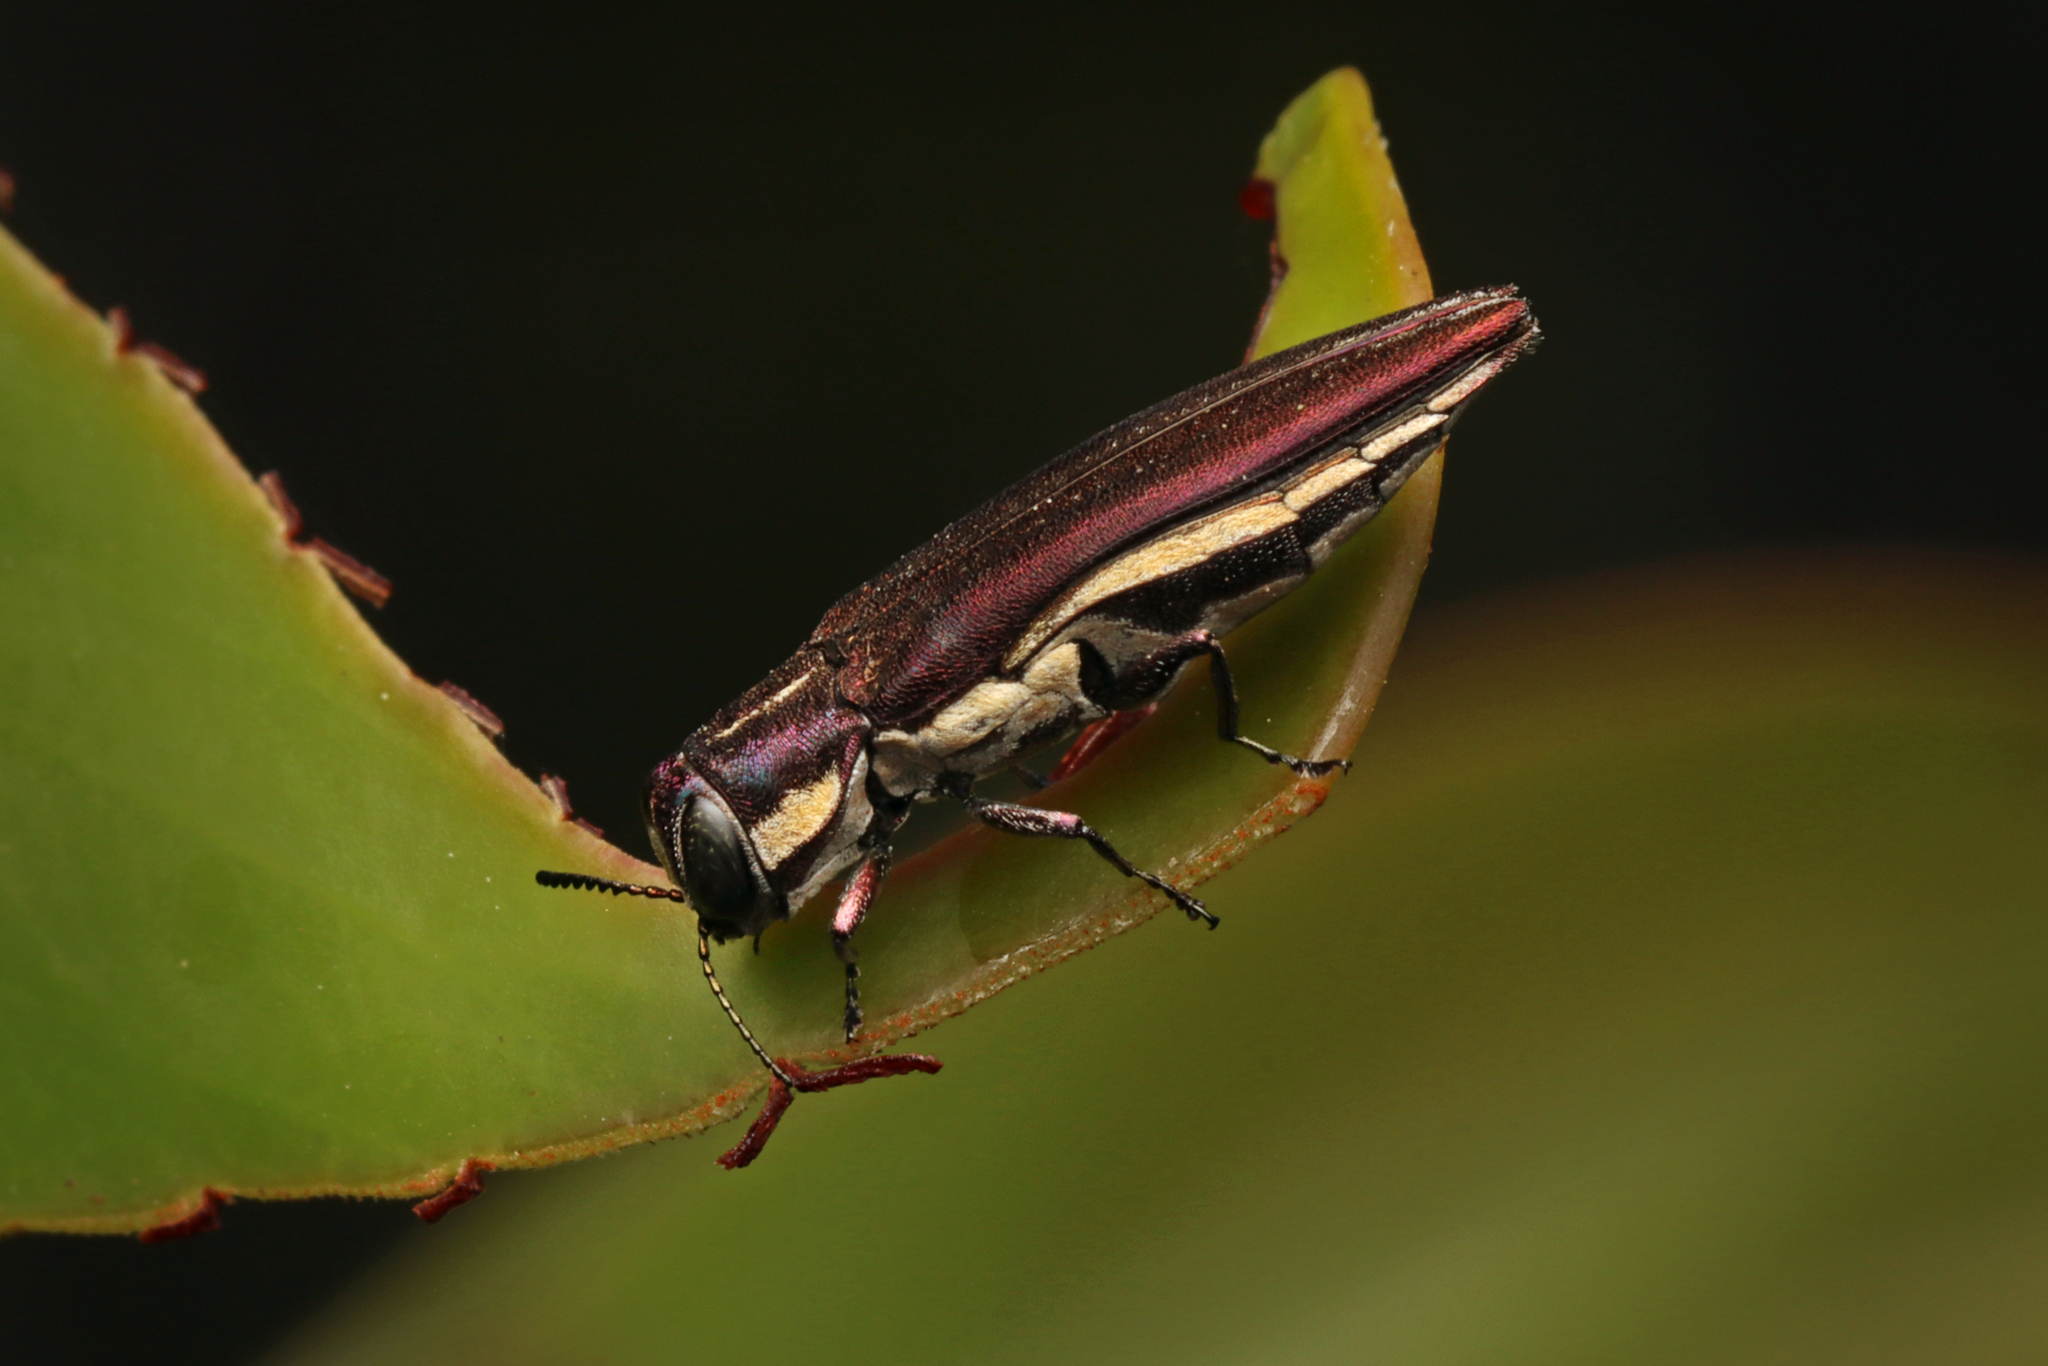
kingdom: Animalia
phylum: Arthropoda
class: Insecta
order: Coleoptera
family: Buprestidae
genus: Agrilus
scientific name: Agrilus hypoleucus
